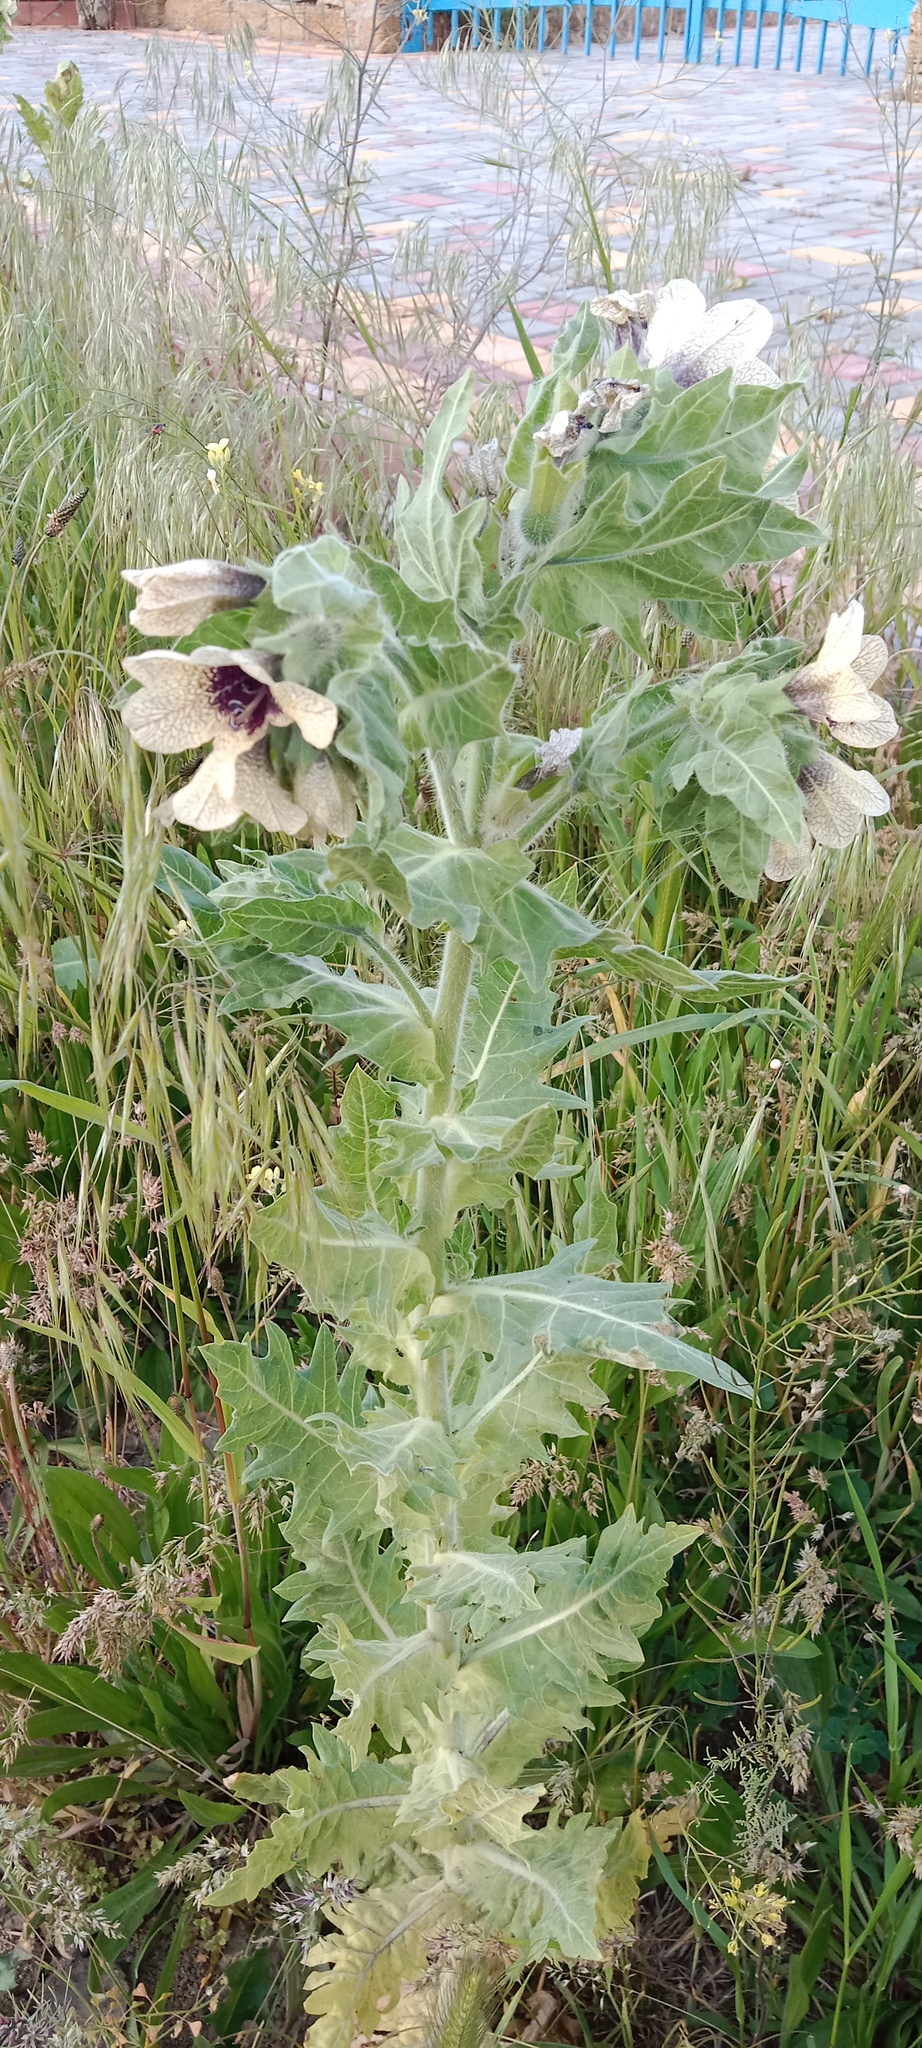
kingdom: Plantae
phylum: Tracheophyta
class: Magnoliopsida
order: Solanales
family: Solanaceae
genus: Hyoscyamus
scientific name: Hyoscyamus niger
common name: Henbane
